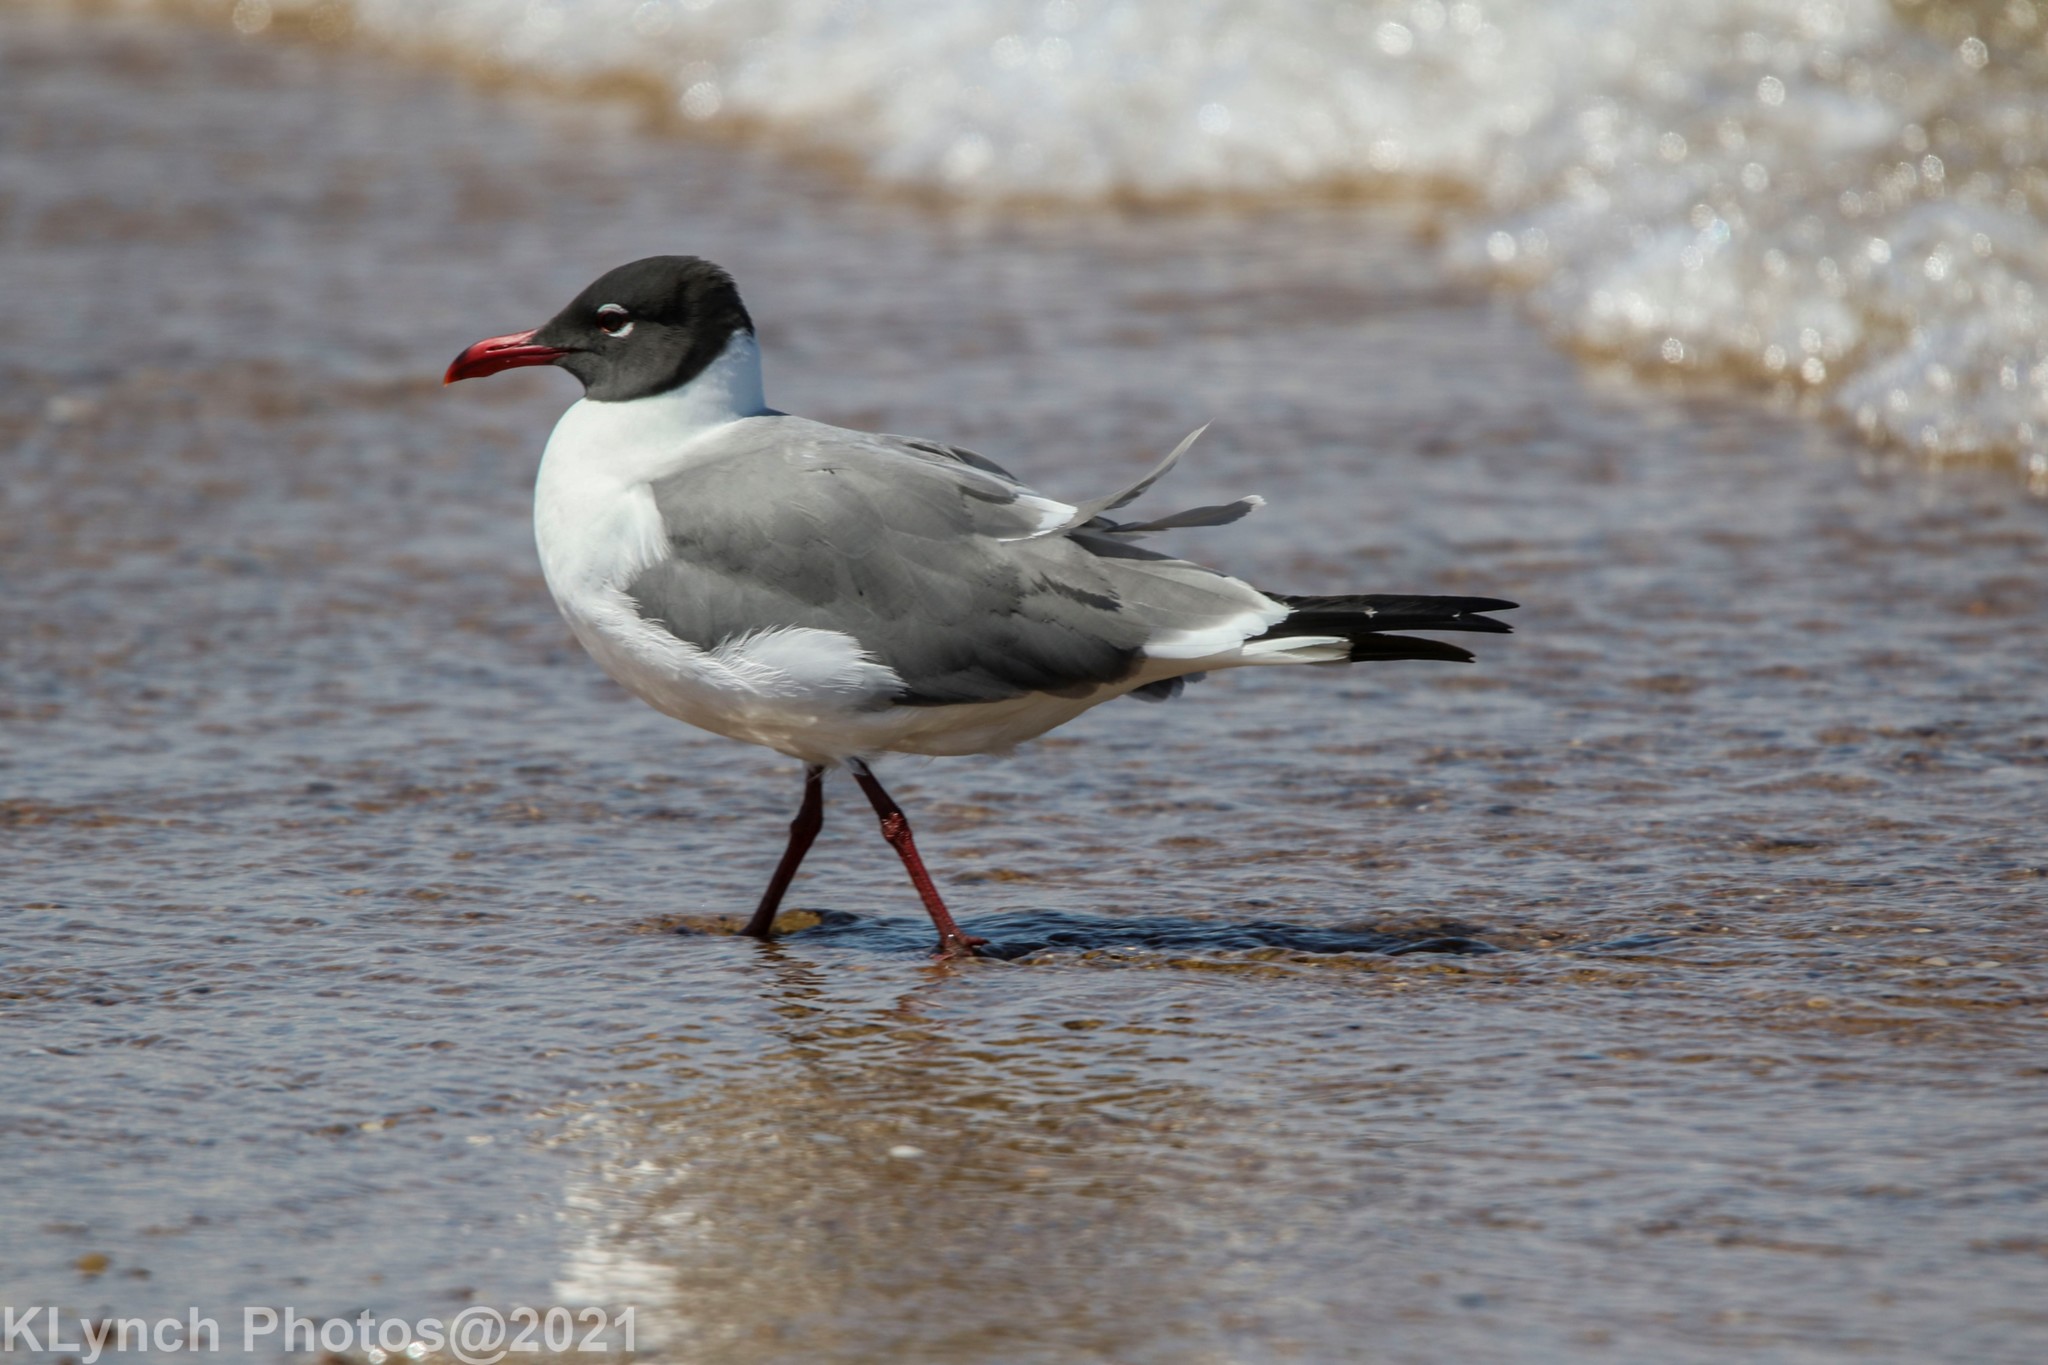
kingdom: Animalia
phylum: Chordata
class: Aves
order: Charadriiformes
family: Laridae
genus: Leucophaeus
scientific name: Leucophaeus atricilla
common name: Laughing gull
